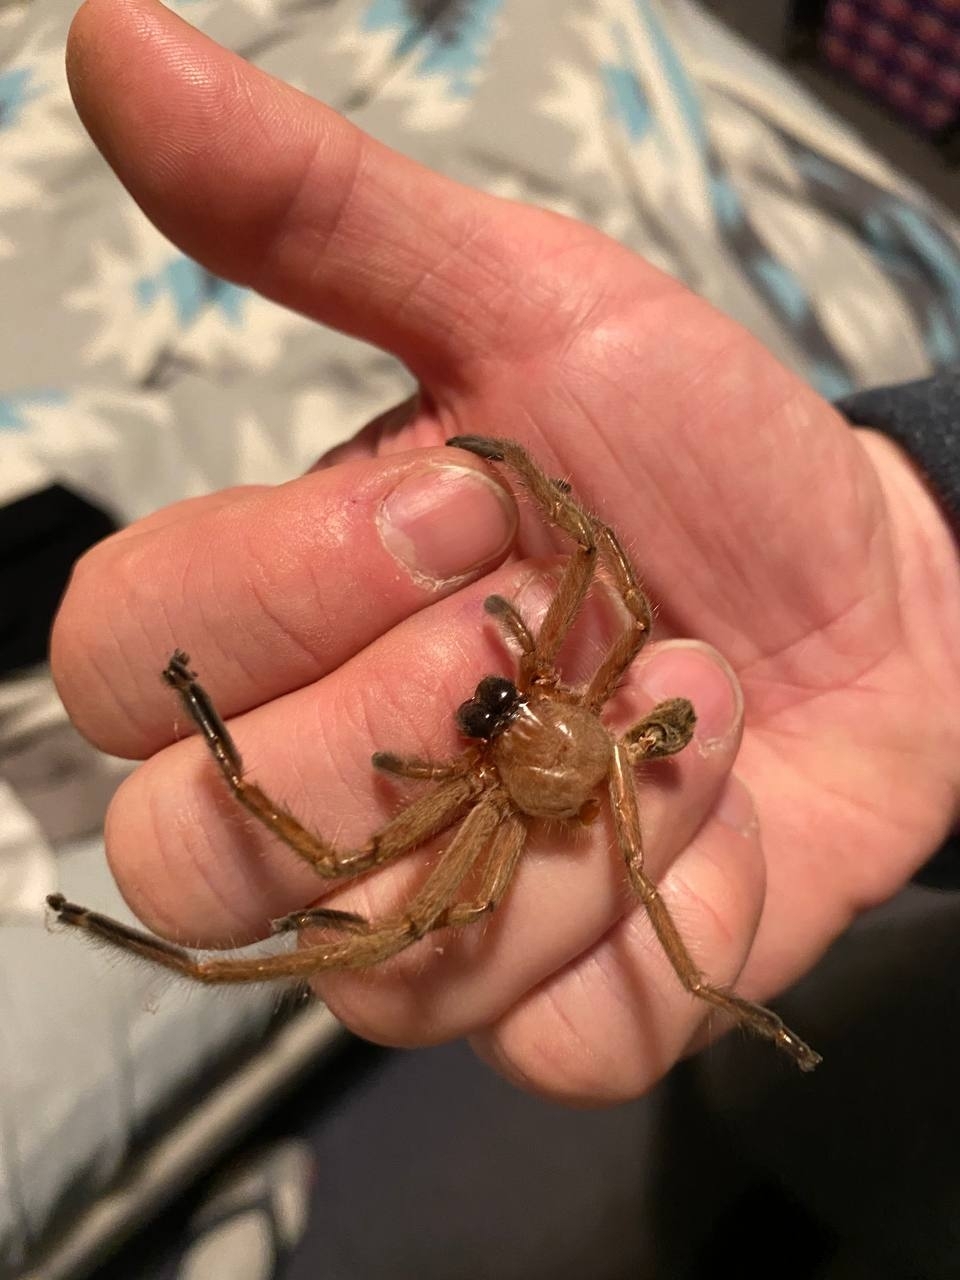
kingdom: Animalia
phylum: Arthropoda
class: Arachnida
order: Araneae
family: Sparassidae
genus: Delena
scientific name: Delena cancerides
